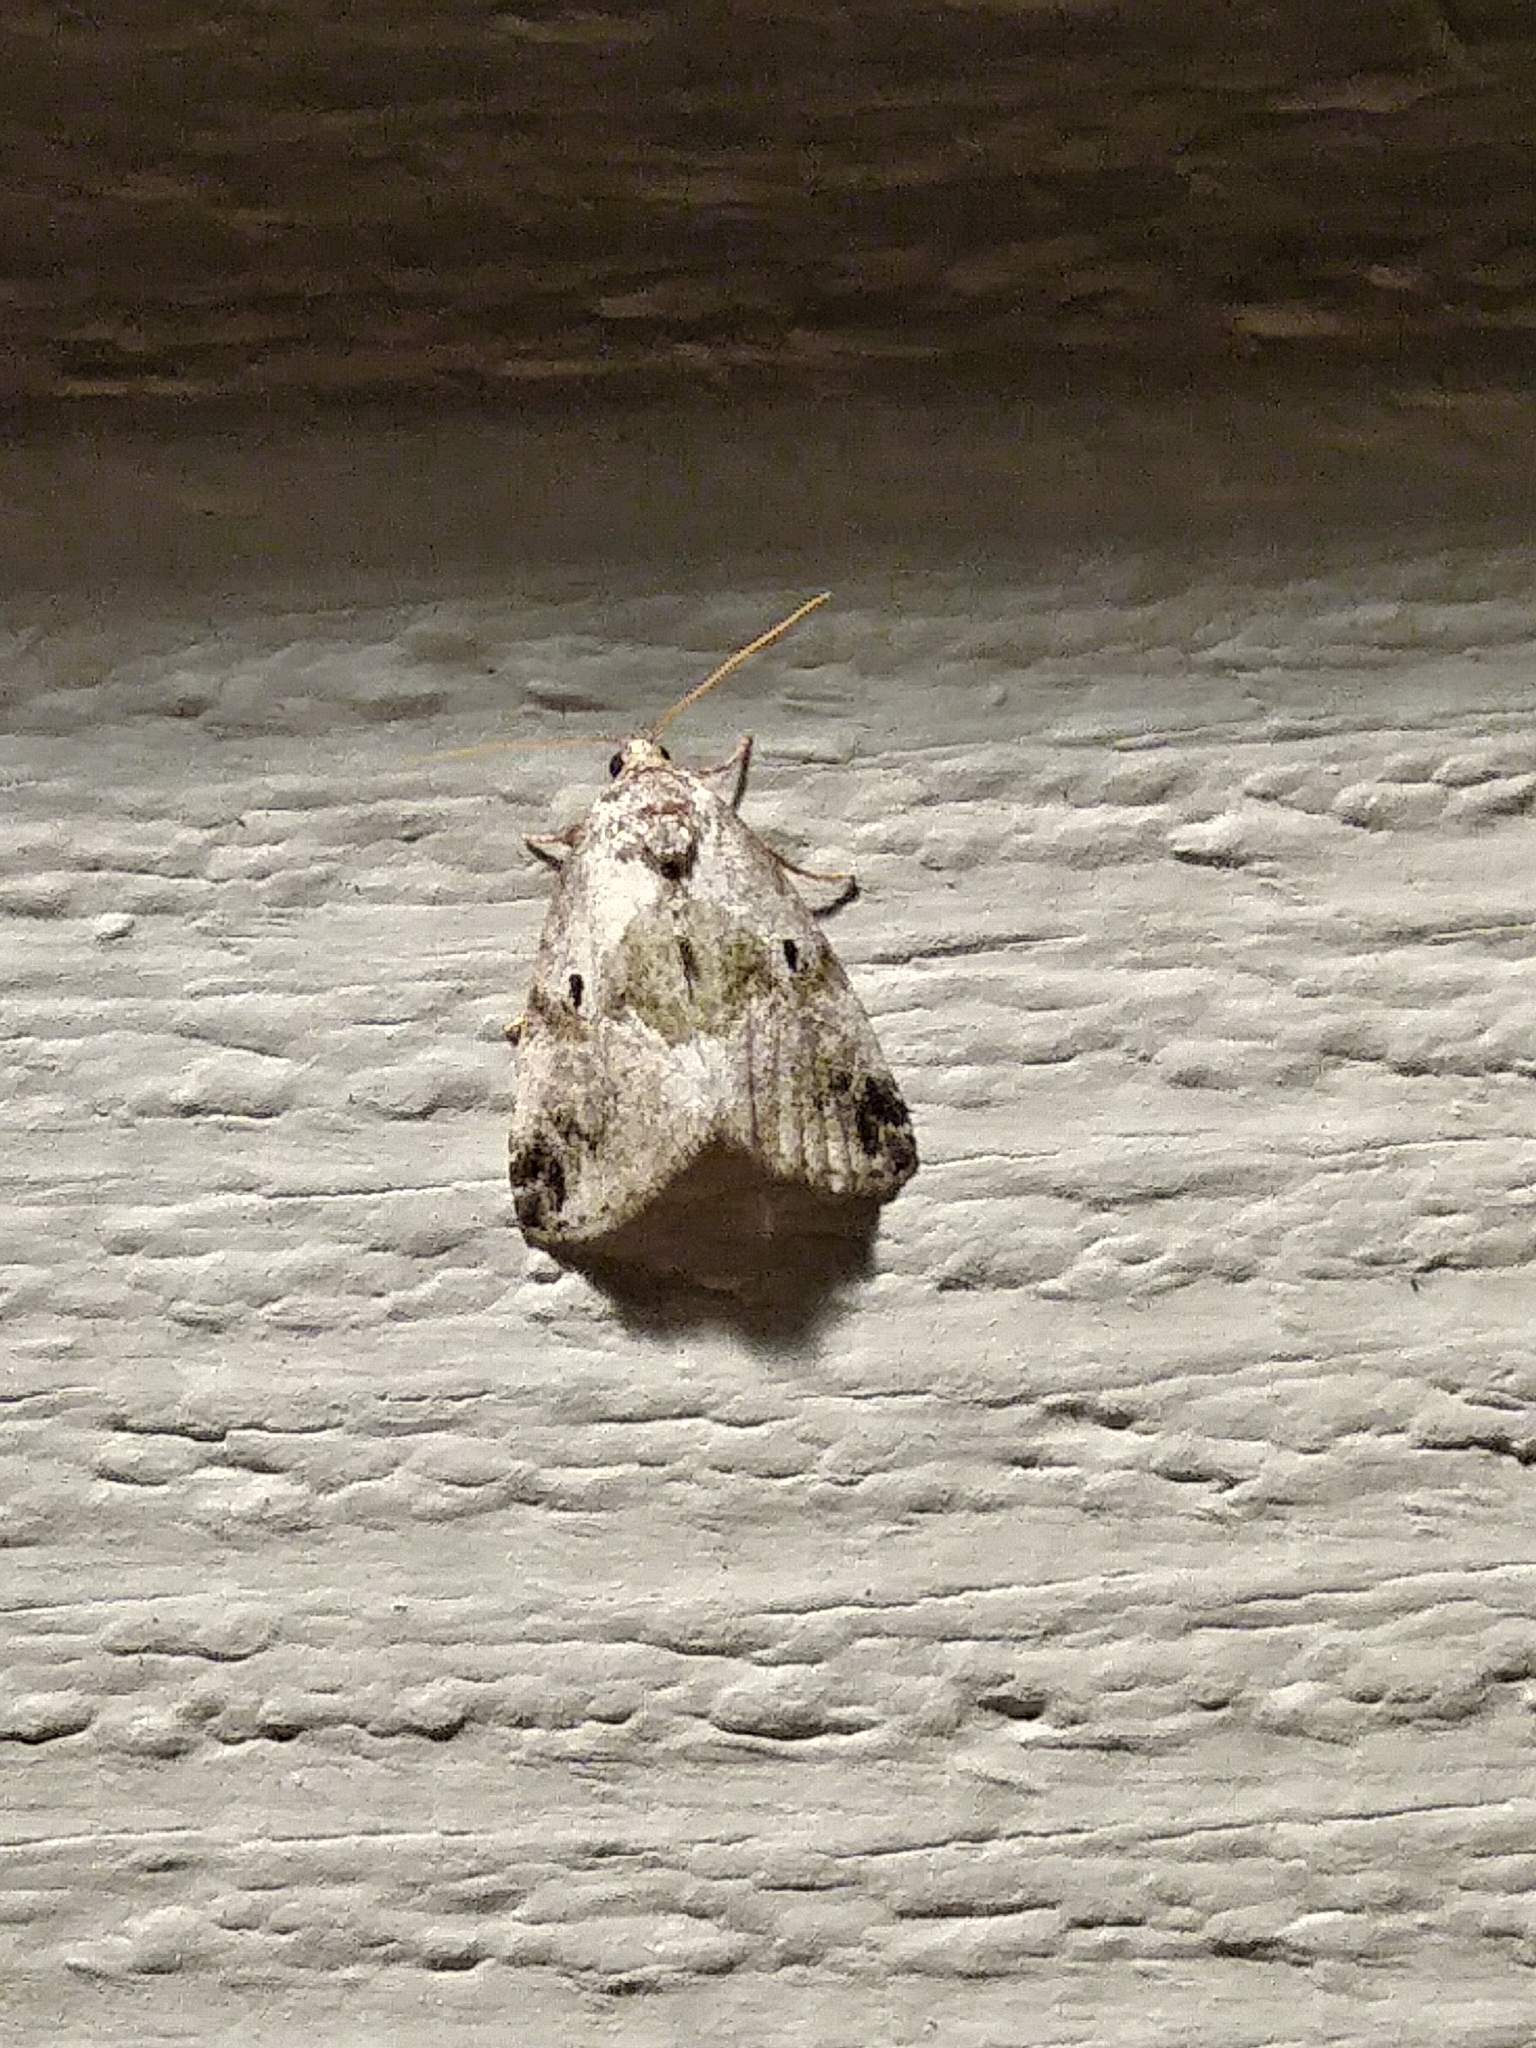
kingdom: Animalia
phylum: Arthropoda
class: Insecta
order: Lepidoptera
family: Noctuidae
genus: Maliattha
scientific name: Maliattha synochitis
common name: Black-dotted glyph
